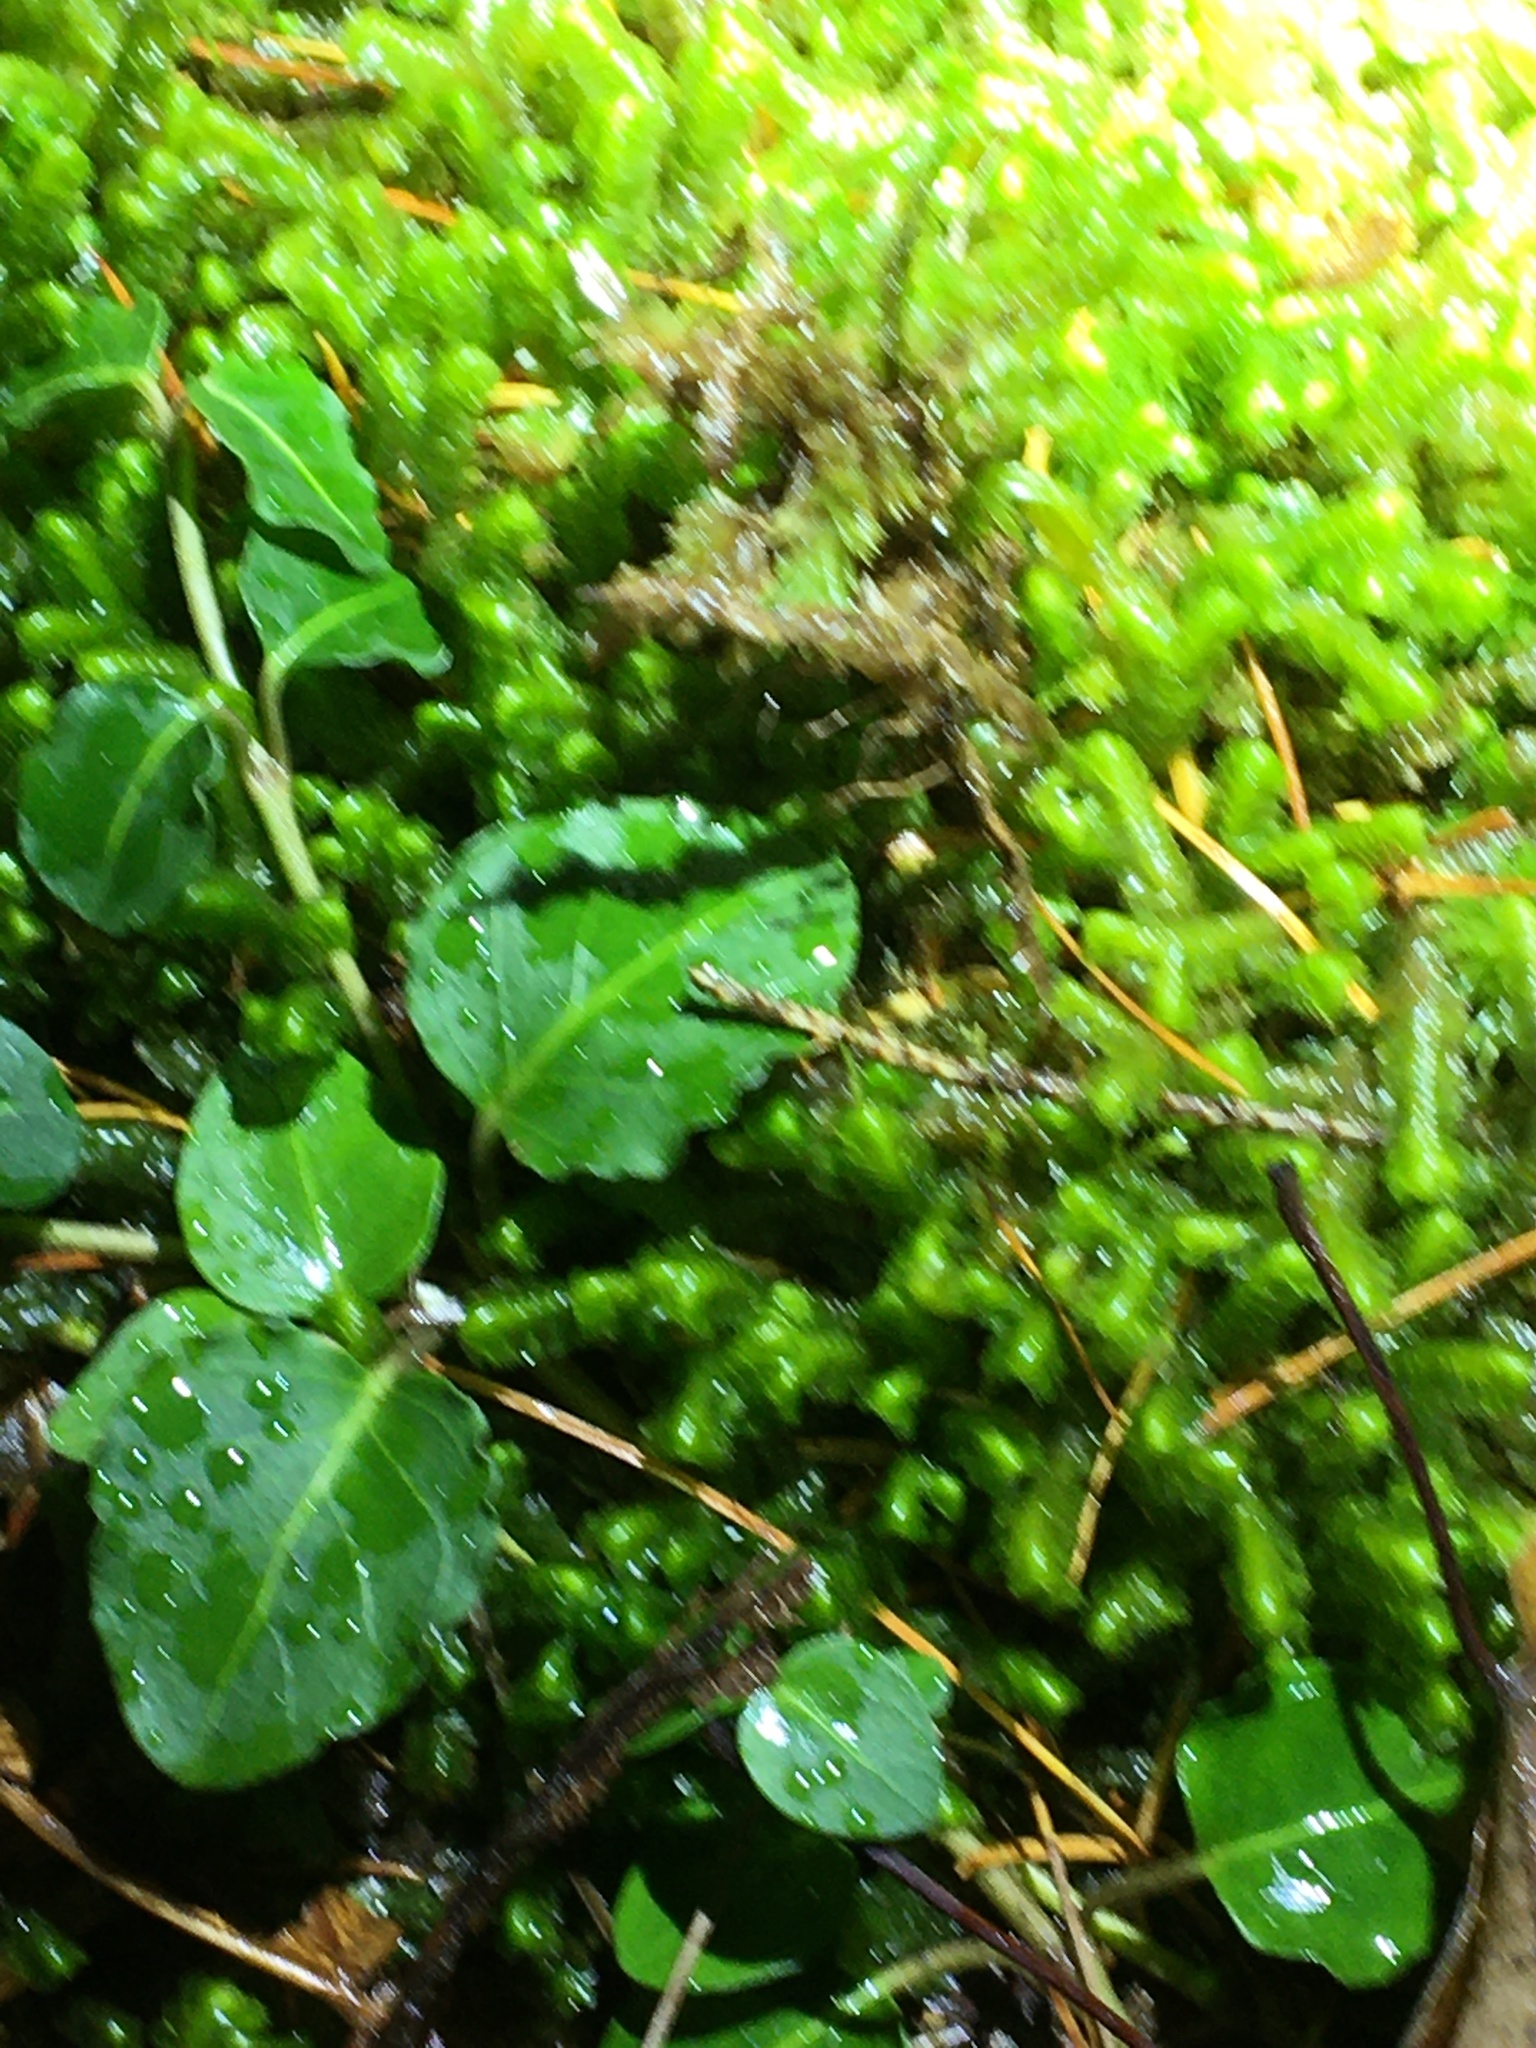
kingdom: Plantae
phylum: Tracheophyta
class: Magnoliopsida
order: Gentianales
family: Rubiaceae
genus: Mitchella
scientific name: Mitchella repens
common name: Partridge-berry
